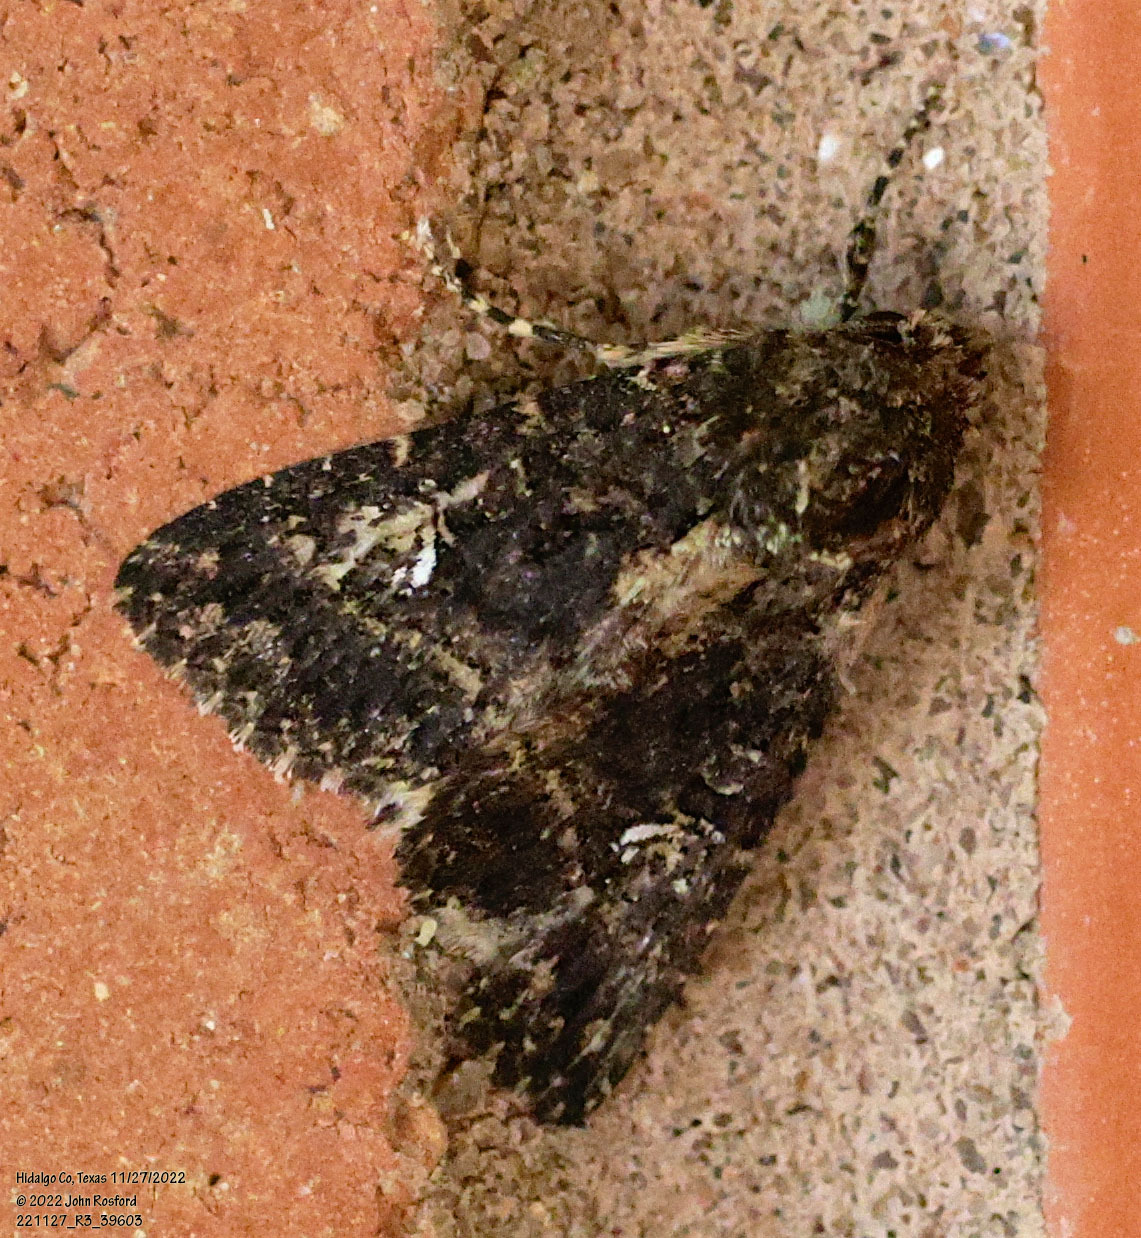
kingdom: Animalia
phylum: Arthropoda
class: Insecta
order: Lepidoptera
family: Noctuidae
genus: Condica
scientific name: Condica albigera
